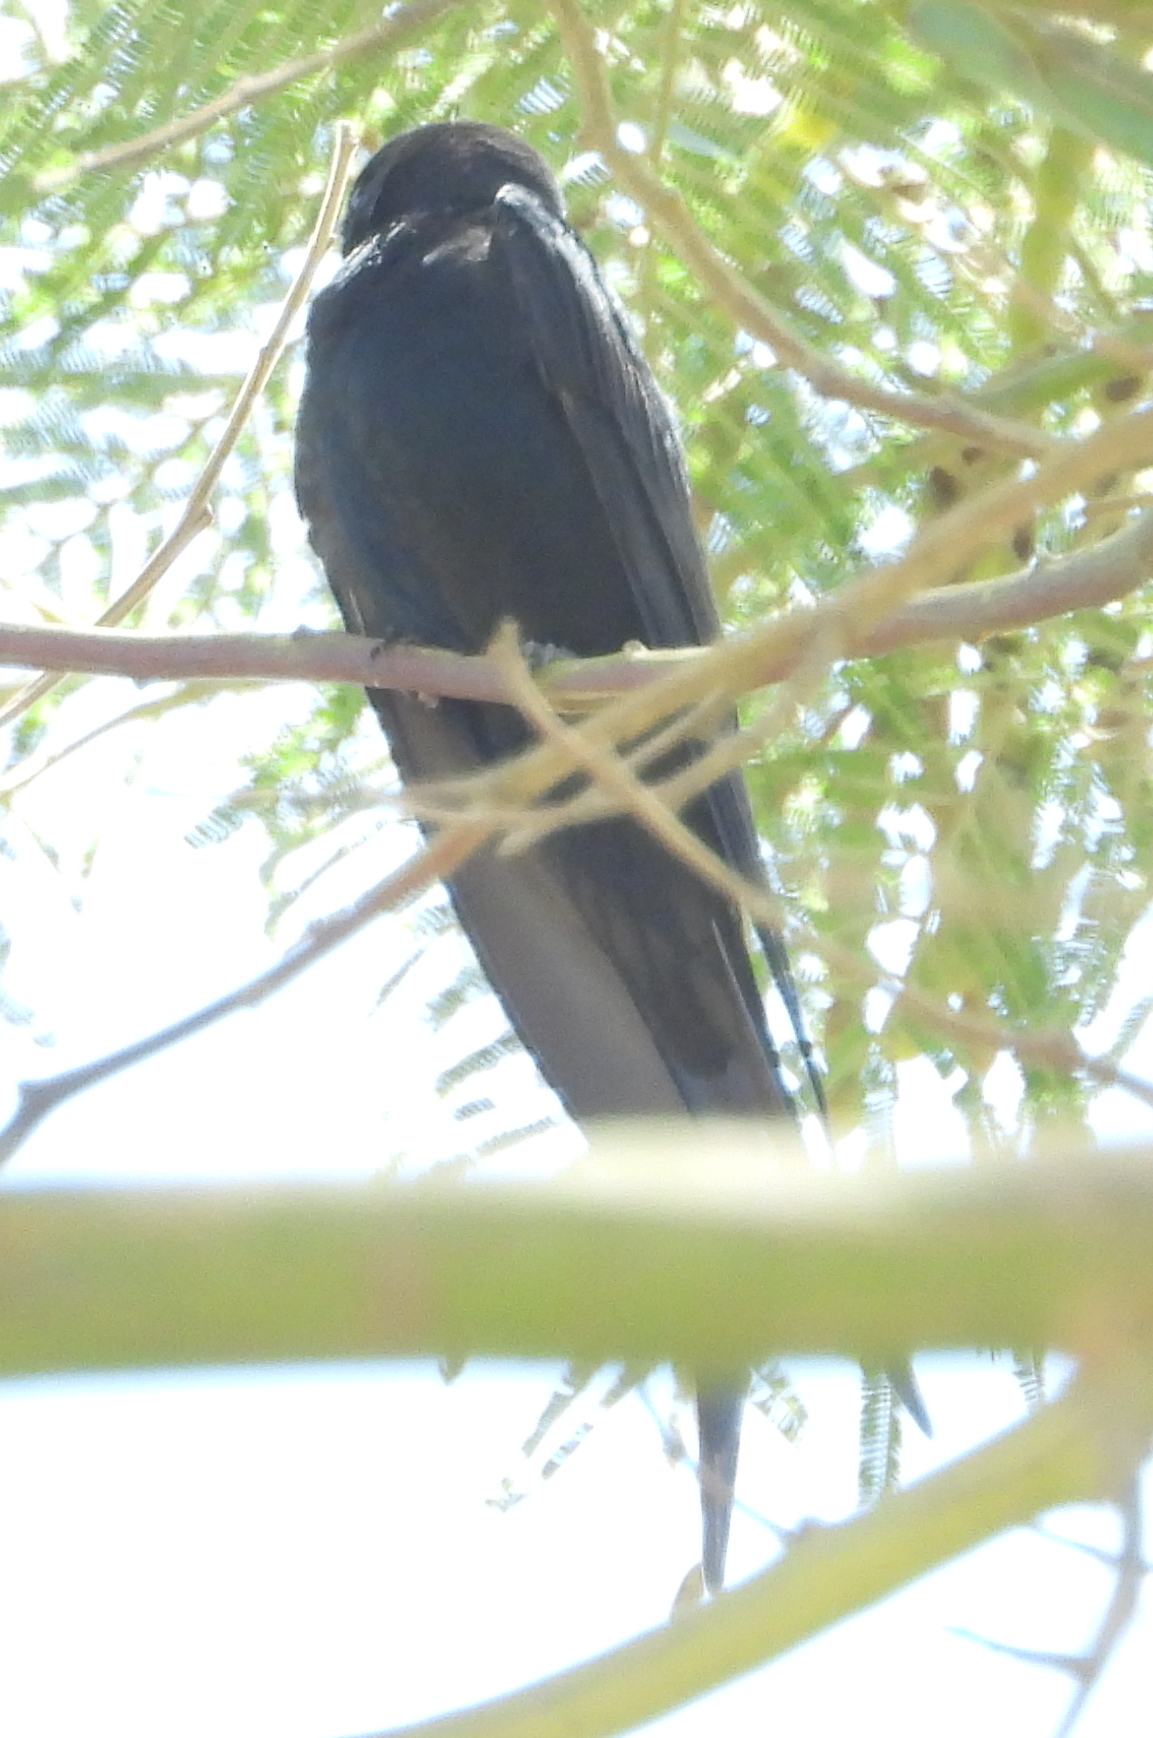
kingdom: Animalia
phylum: Chordata
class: Aves
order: Passeriformes
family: Hirundinidae
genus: Psalidoprocne
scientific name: Psalidoprocne pristoptera
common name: Black saw-wing
